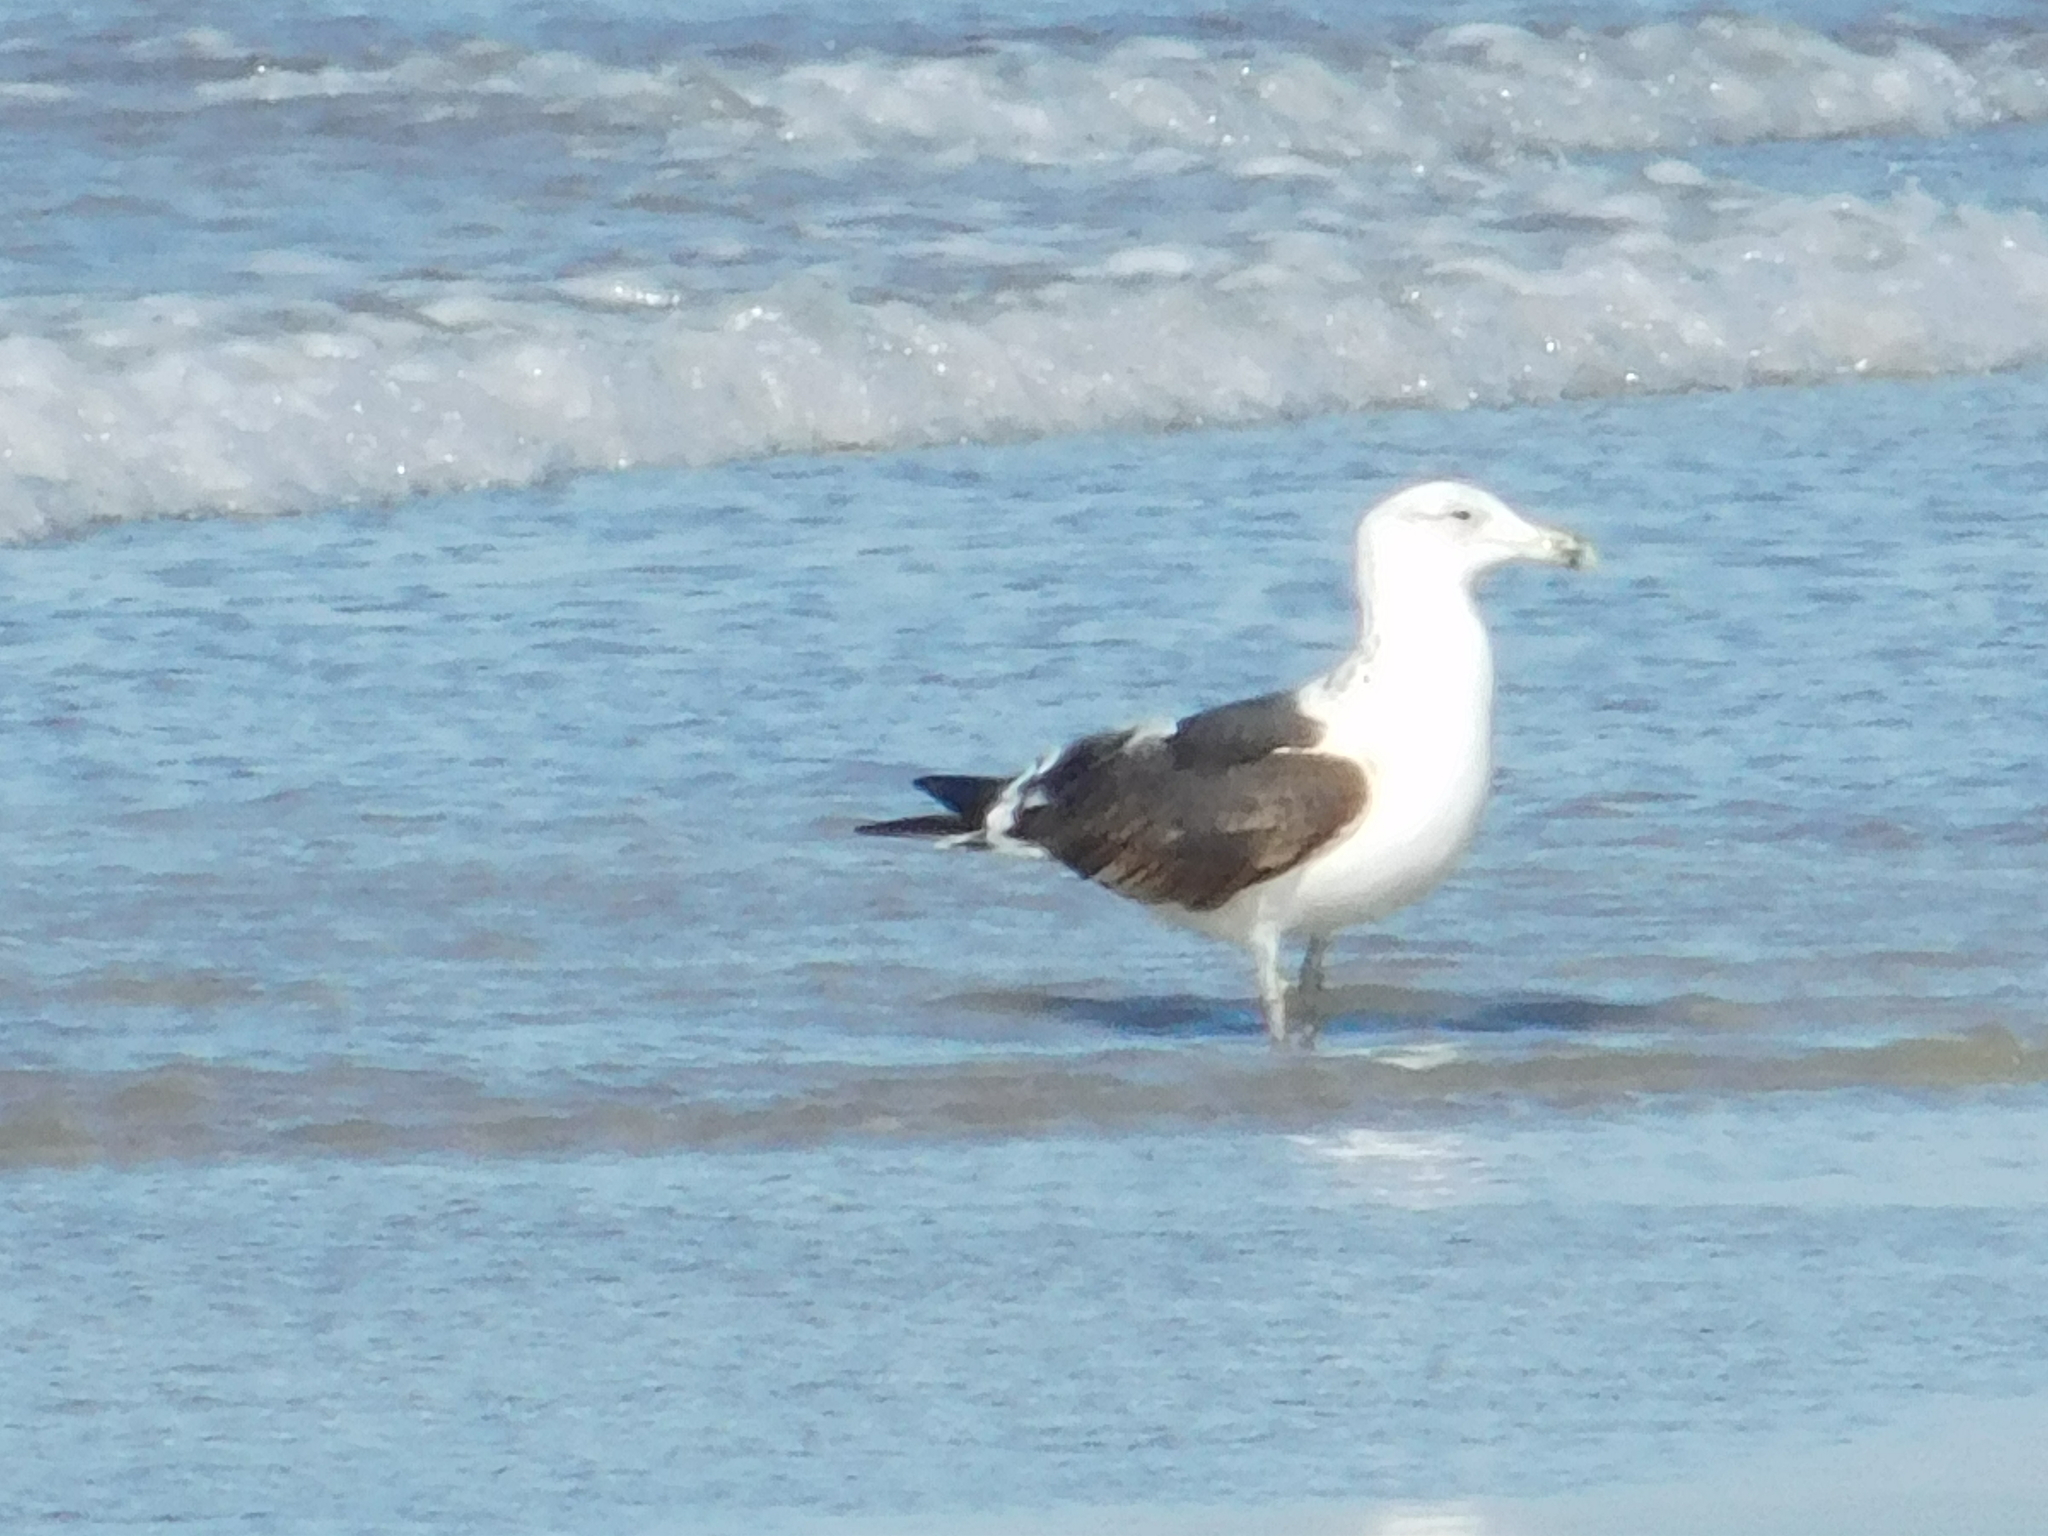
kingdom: Animalia
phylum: Chordata
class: Aves
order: Charadriiformes
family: Laridae
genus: Larus
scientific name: Larus dominicanus
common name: Kelp gull
